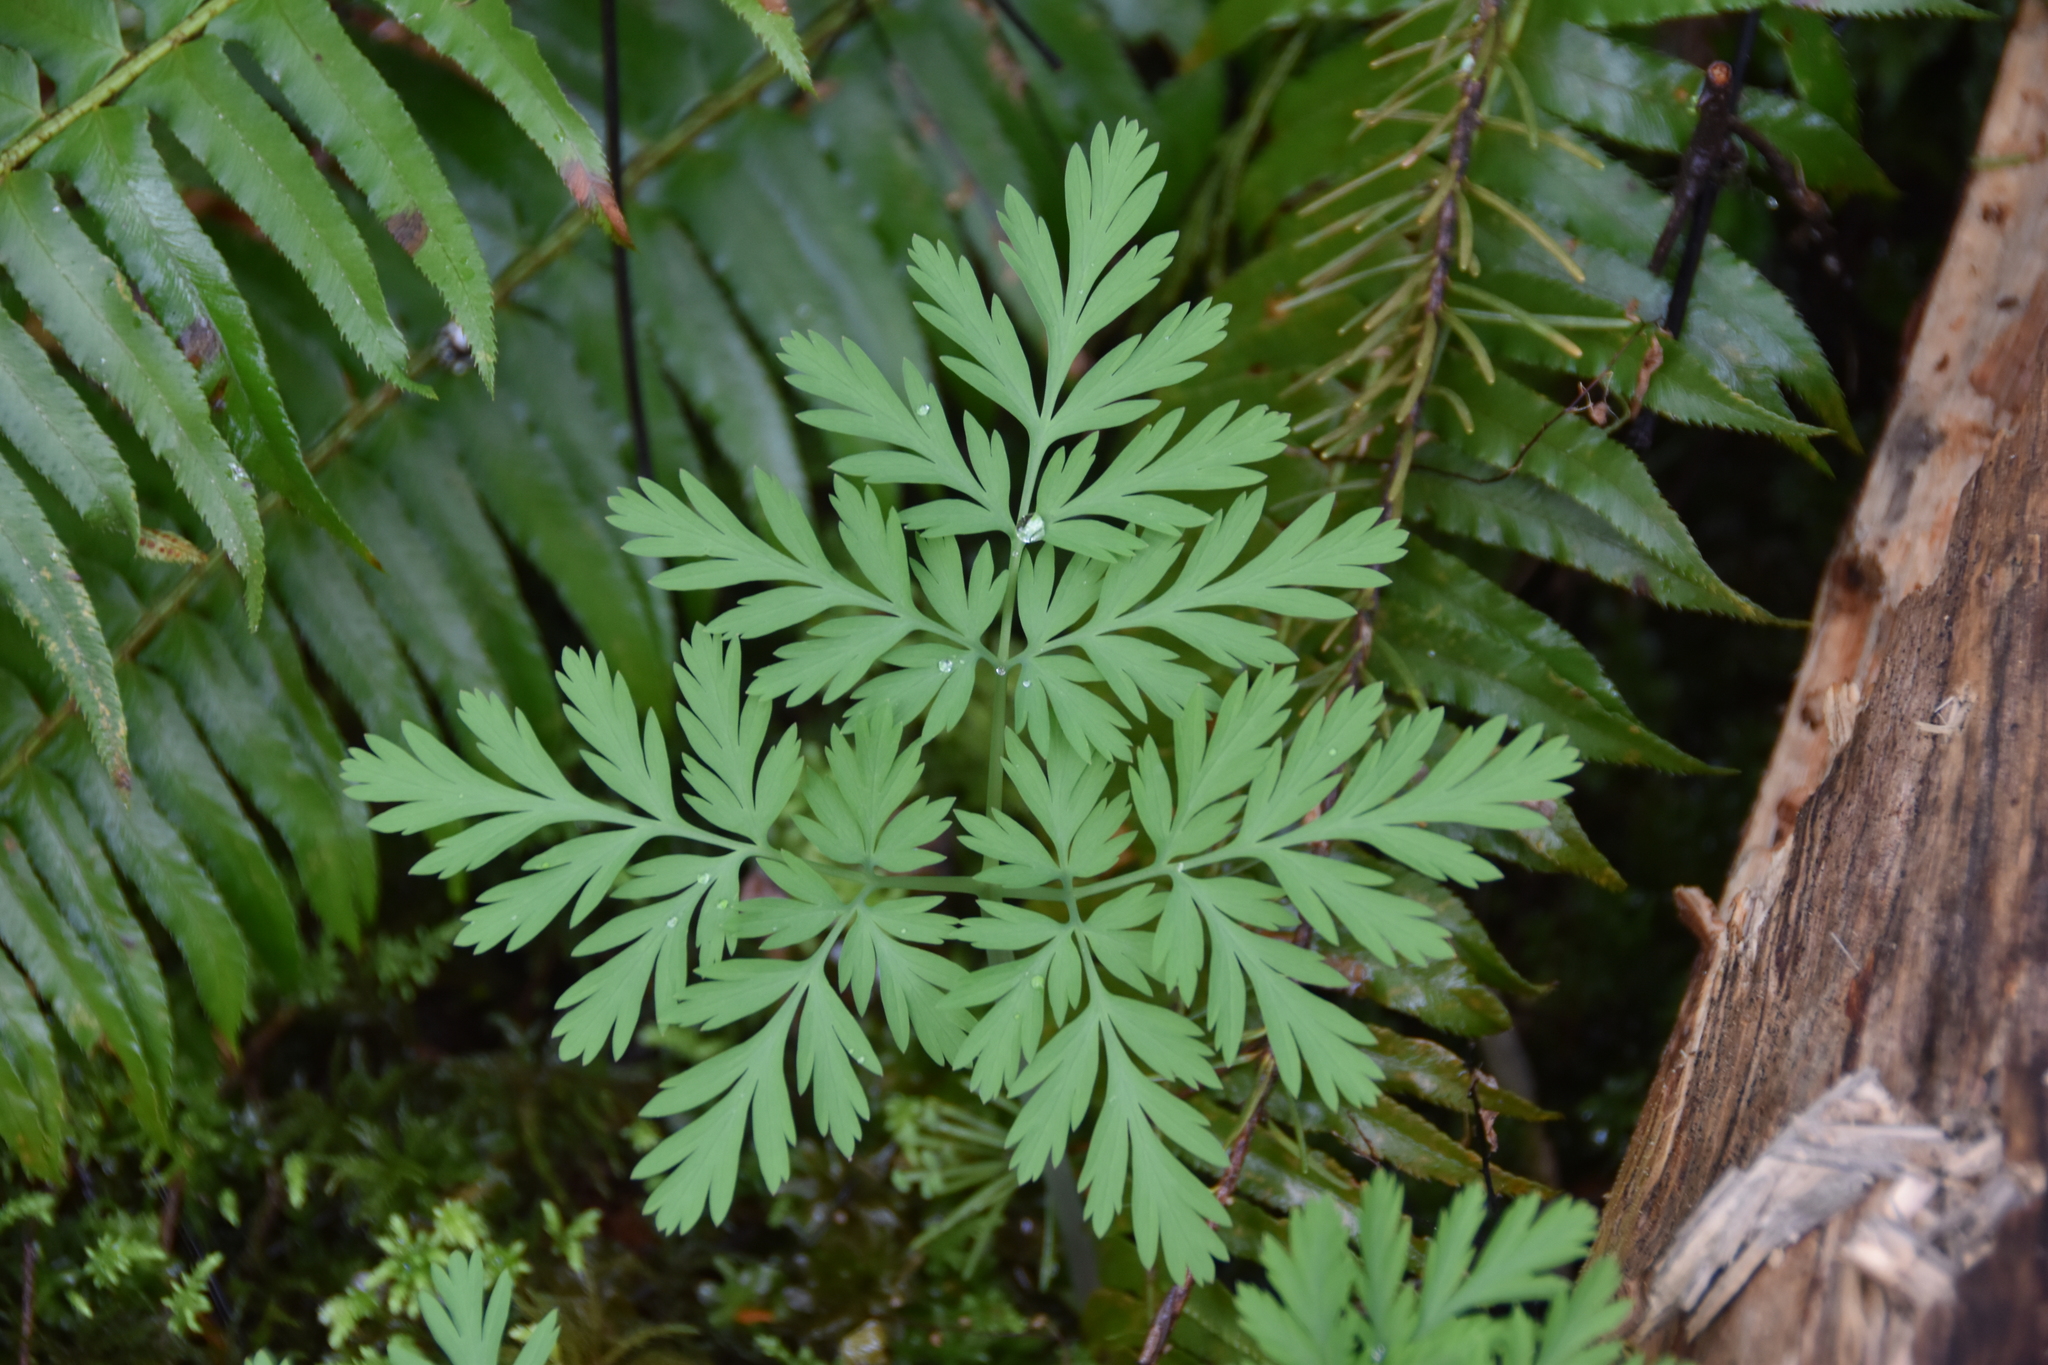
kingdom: Plantae
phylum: Tracheophyta
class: Magnoliopsida
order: Ranunculales
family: Papaveraceae
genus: Dicentra
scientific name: Dicentra formosa
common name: Bleeding-heart
